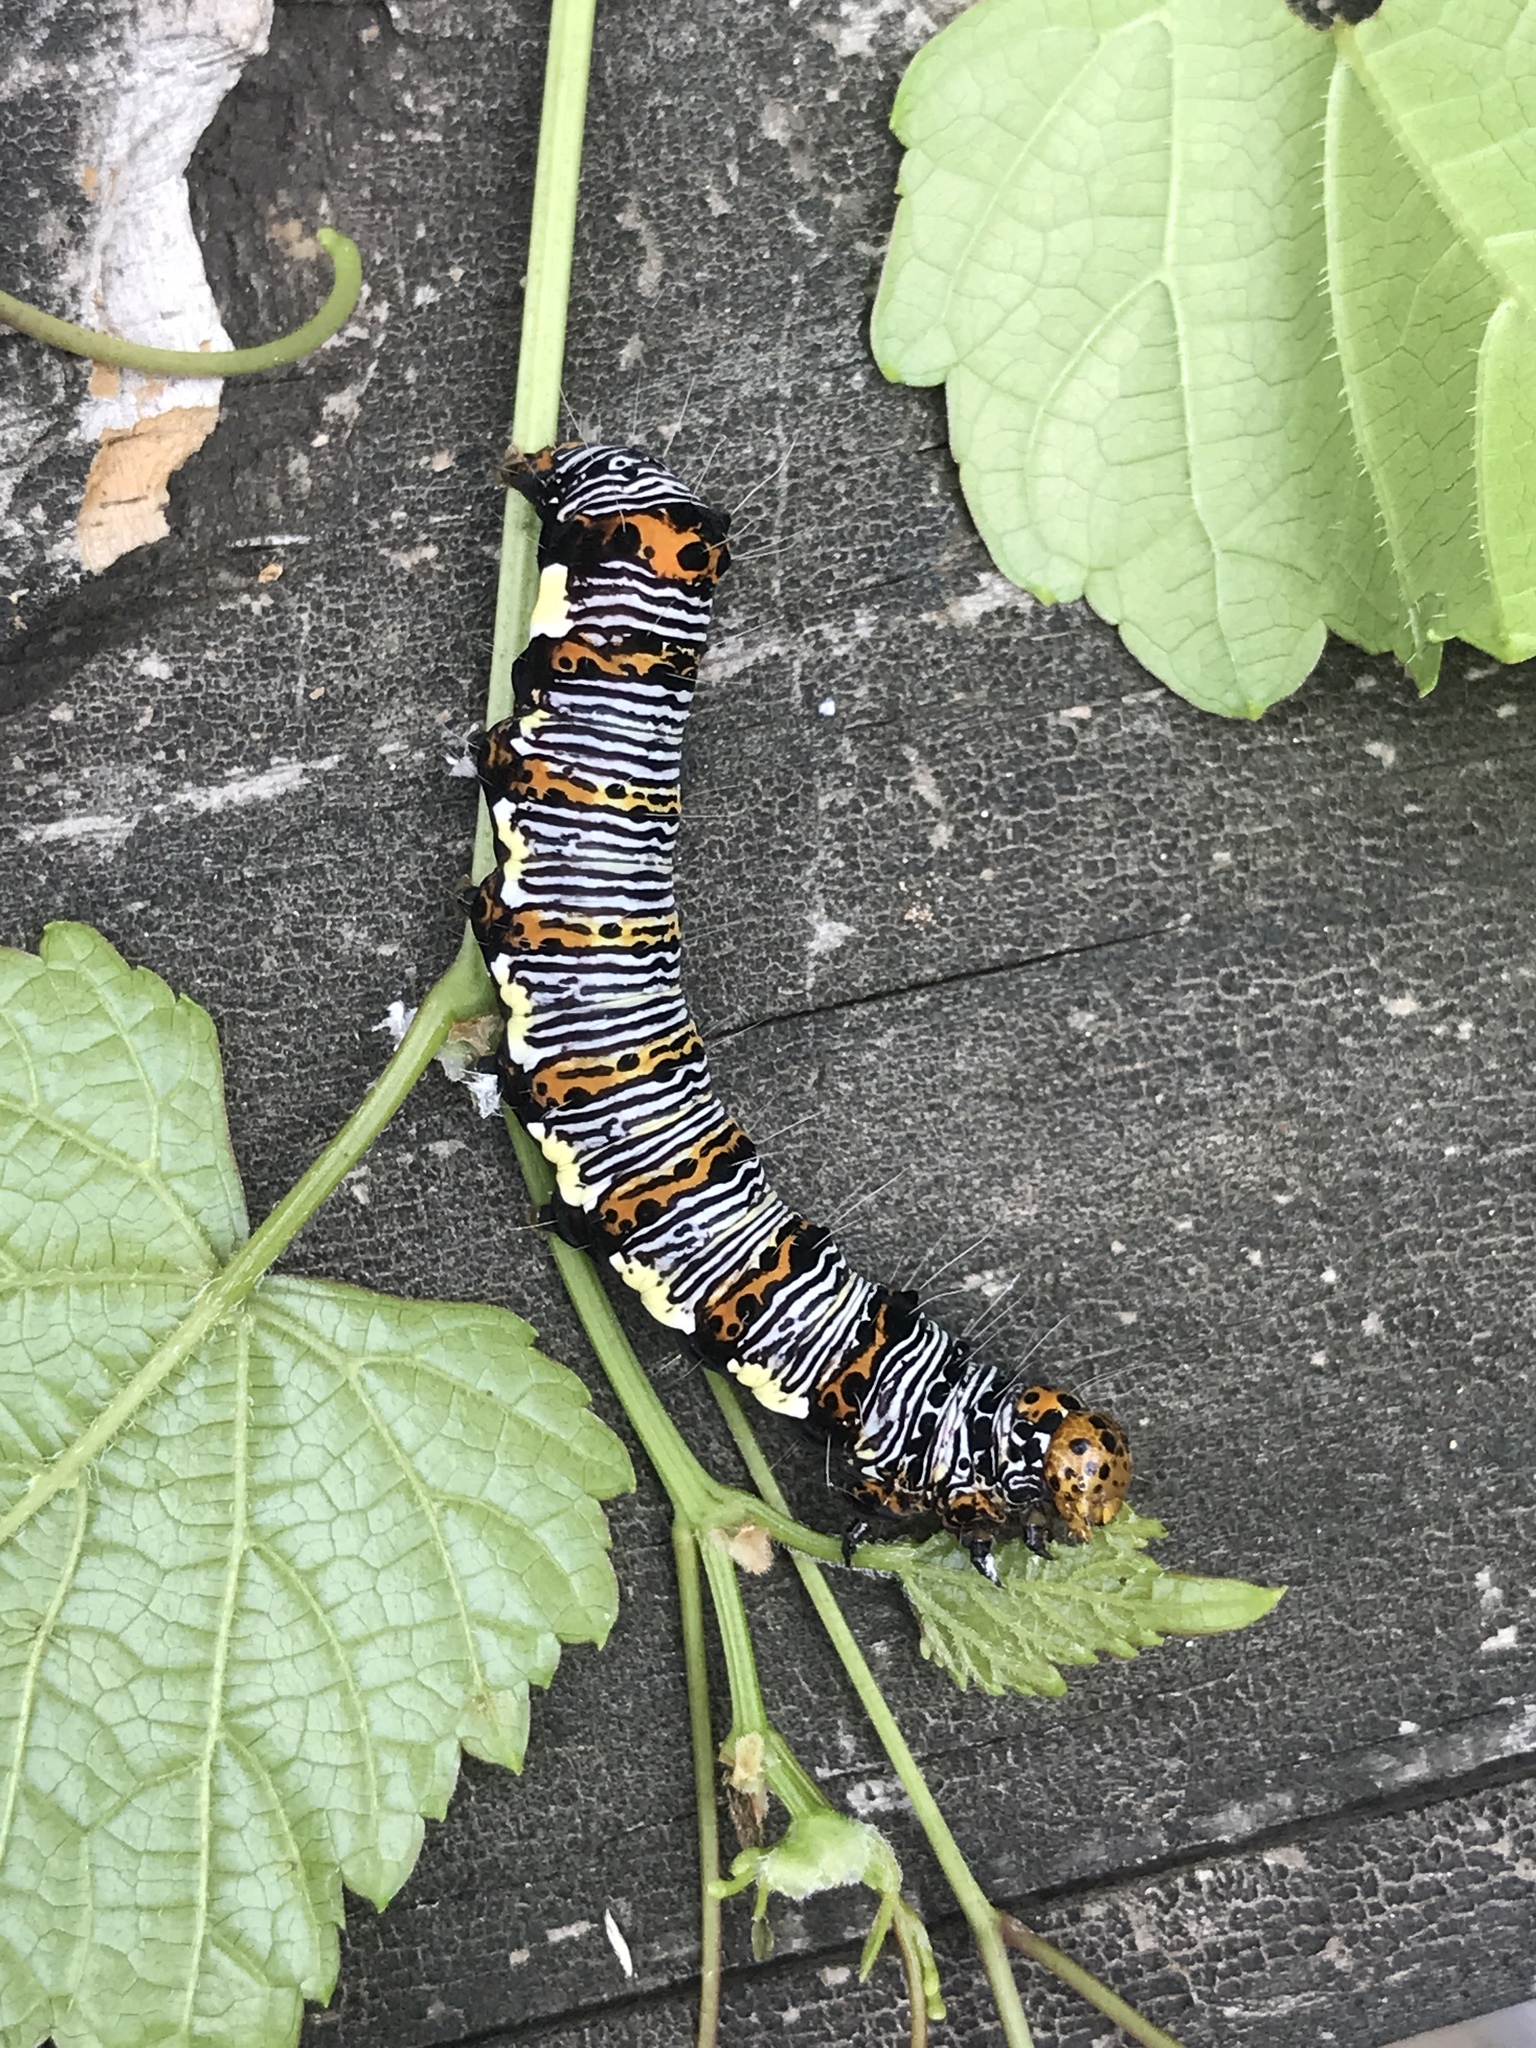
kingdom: Animalia
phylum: Arthropoda
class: Insecta
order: Lepidoptera
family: Noctuidae
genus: Alypia
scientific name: Alypia octomaculata
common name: Eight-spotted forester
